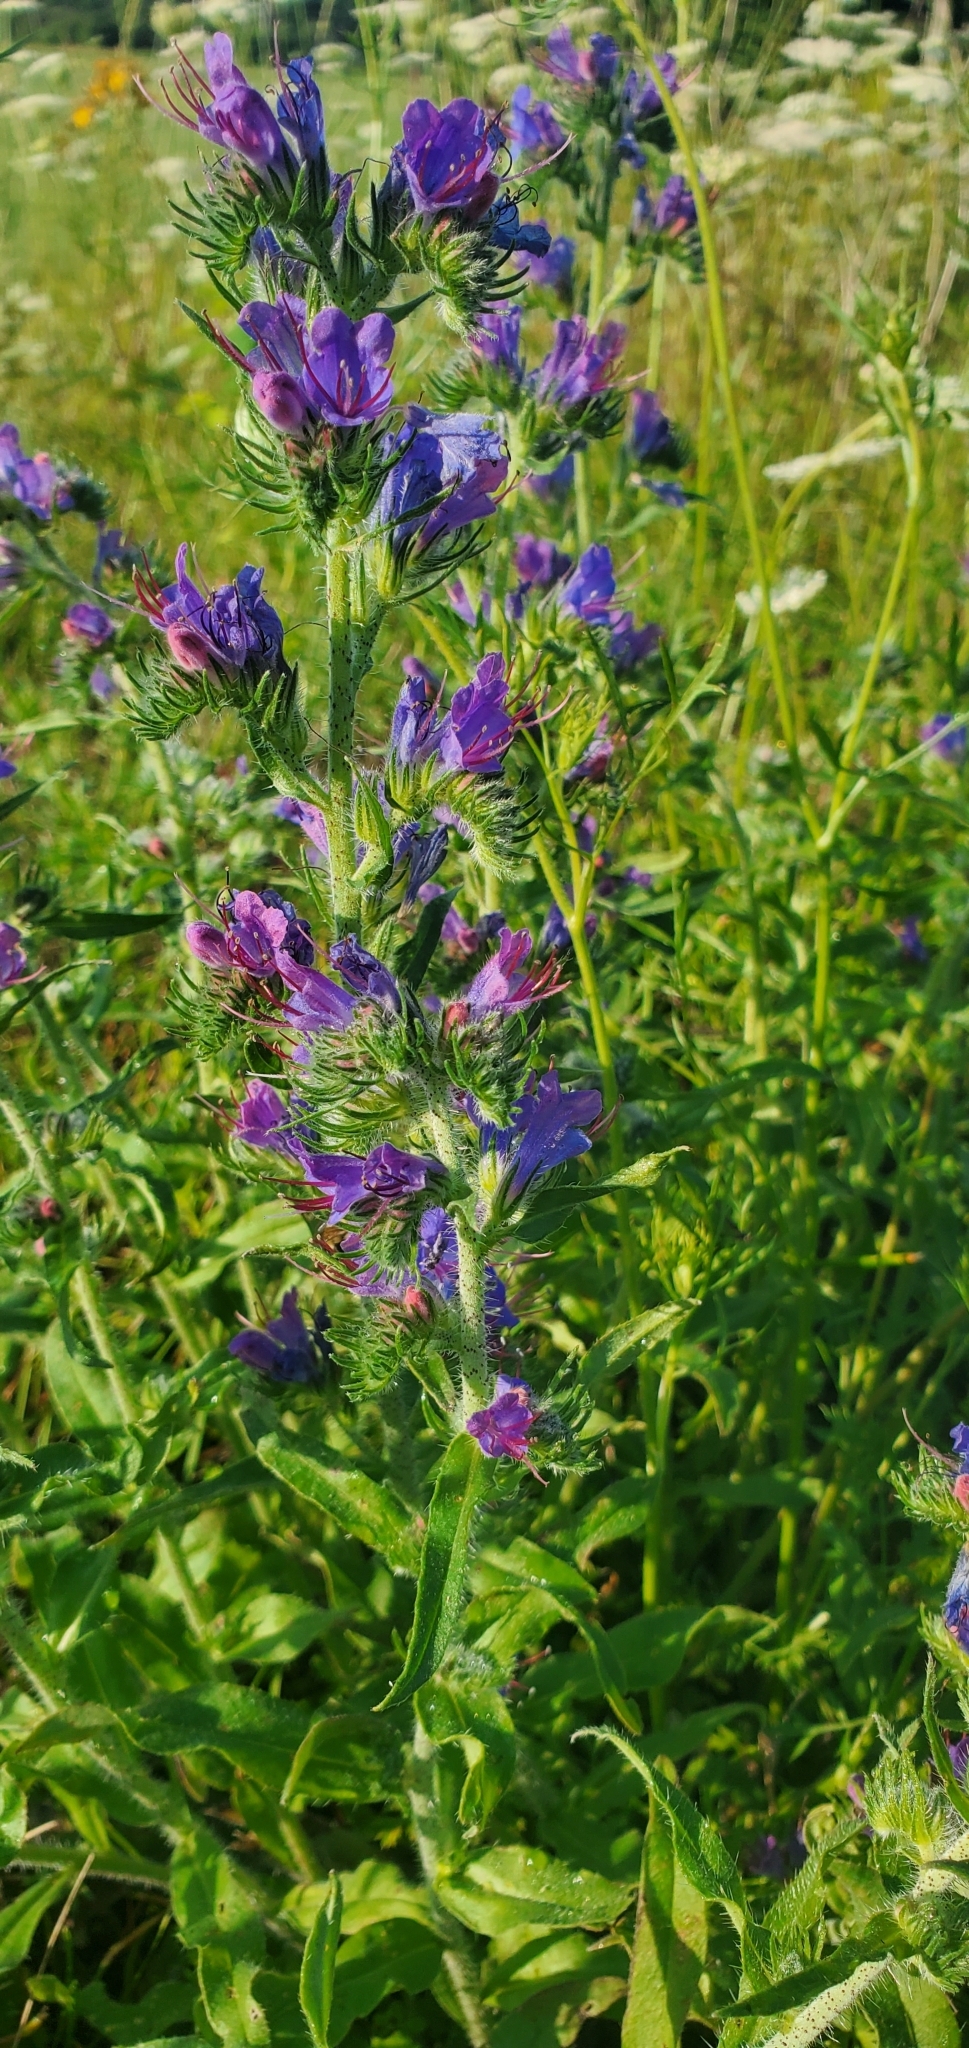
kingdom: Plantae
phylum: Tracheophyta
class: Magnoliopsida
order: Boraginales
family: Boraginaceae
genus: Echium
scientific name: Echium vulgare
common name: Common viper's bugloss
